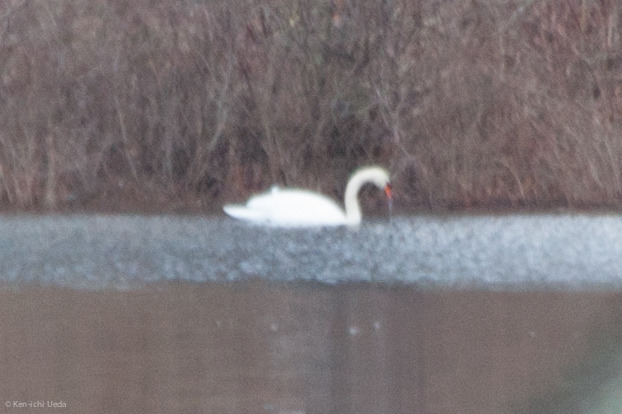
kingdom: Animalia
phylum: Chordata
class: Aves
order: Anseriformes
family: Anatidae
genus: Cygnus
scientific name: Cygnus olor
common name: Mute swan
